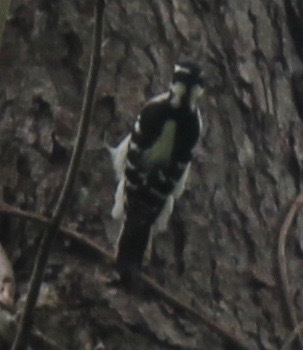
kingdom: Animalia
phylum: Chordata
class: Aves
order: Piciformes
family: Picidae
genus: Dryobates
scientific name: Dryobates pubescens
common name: Downy woodpecker
